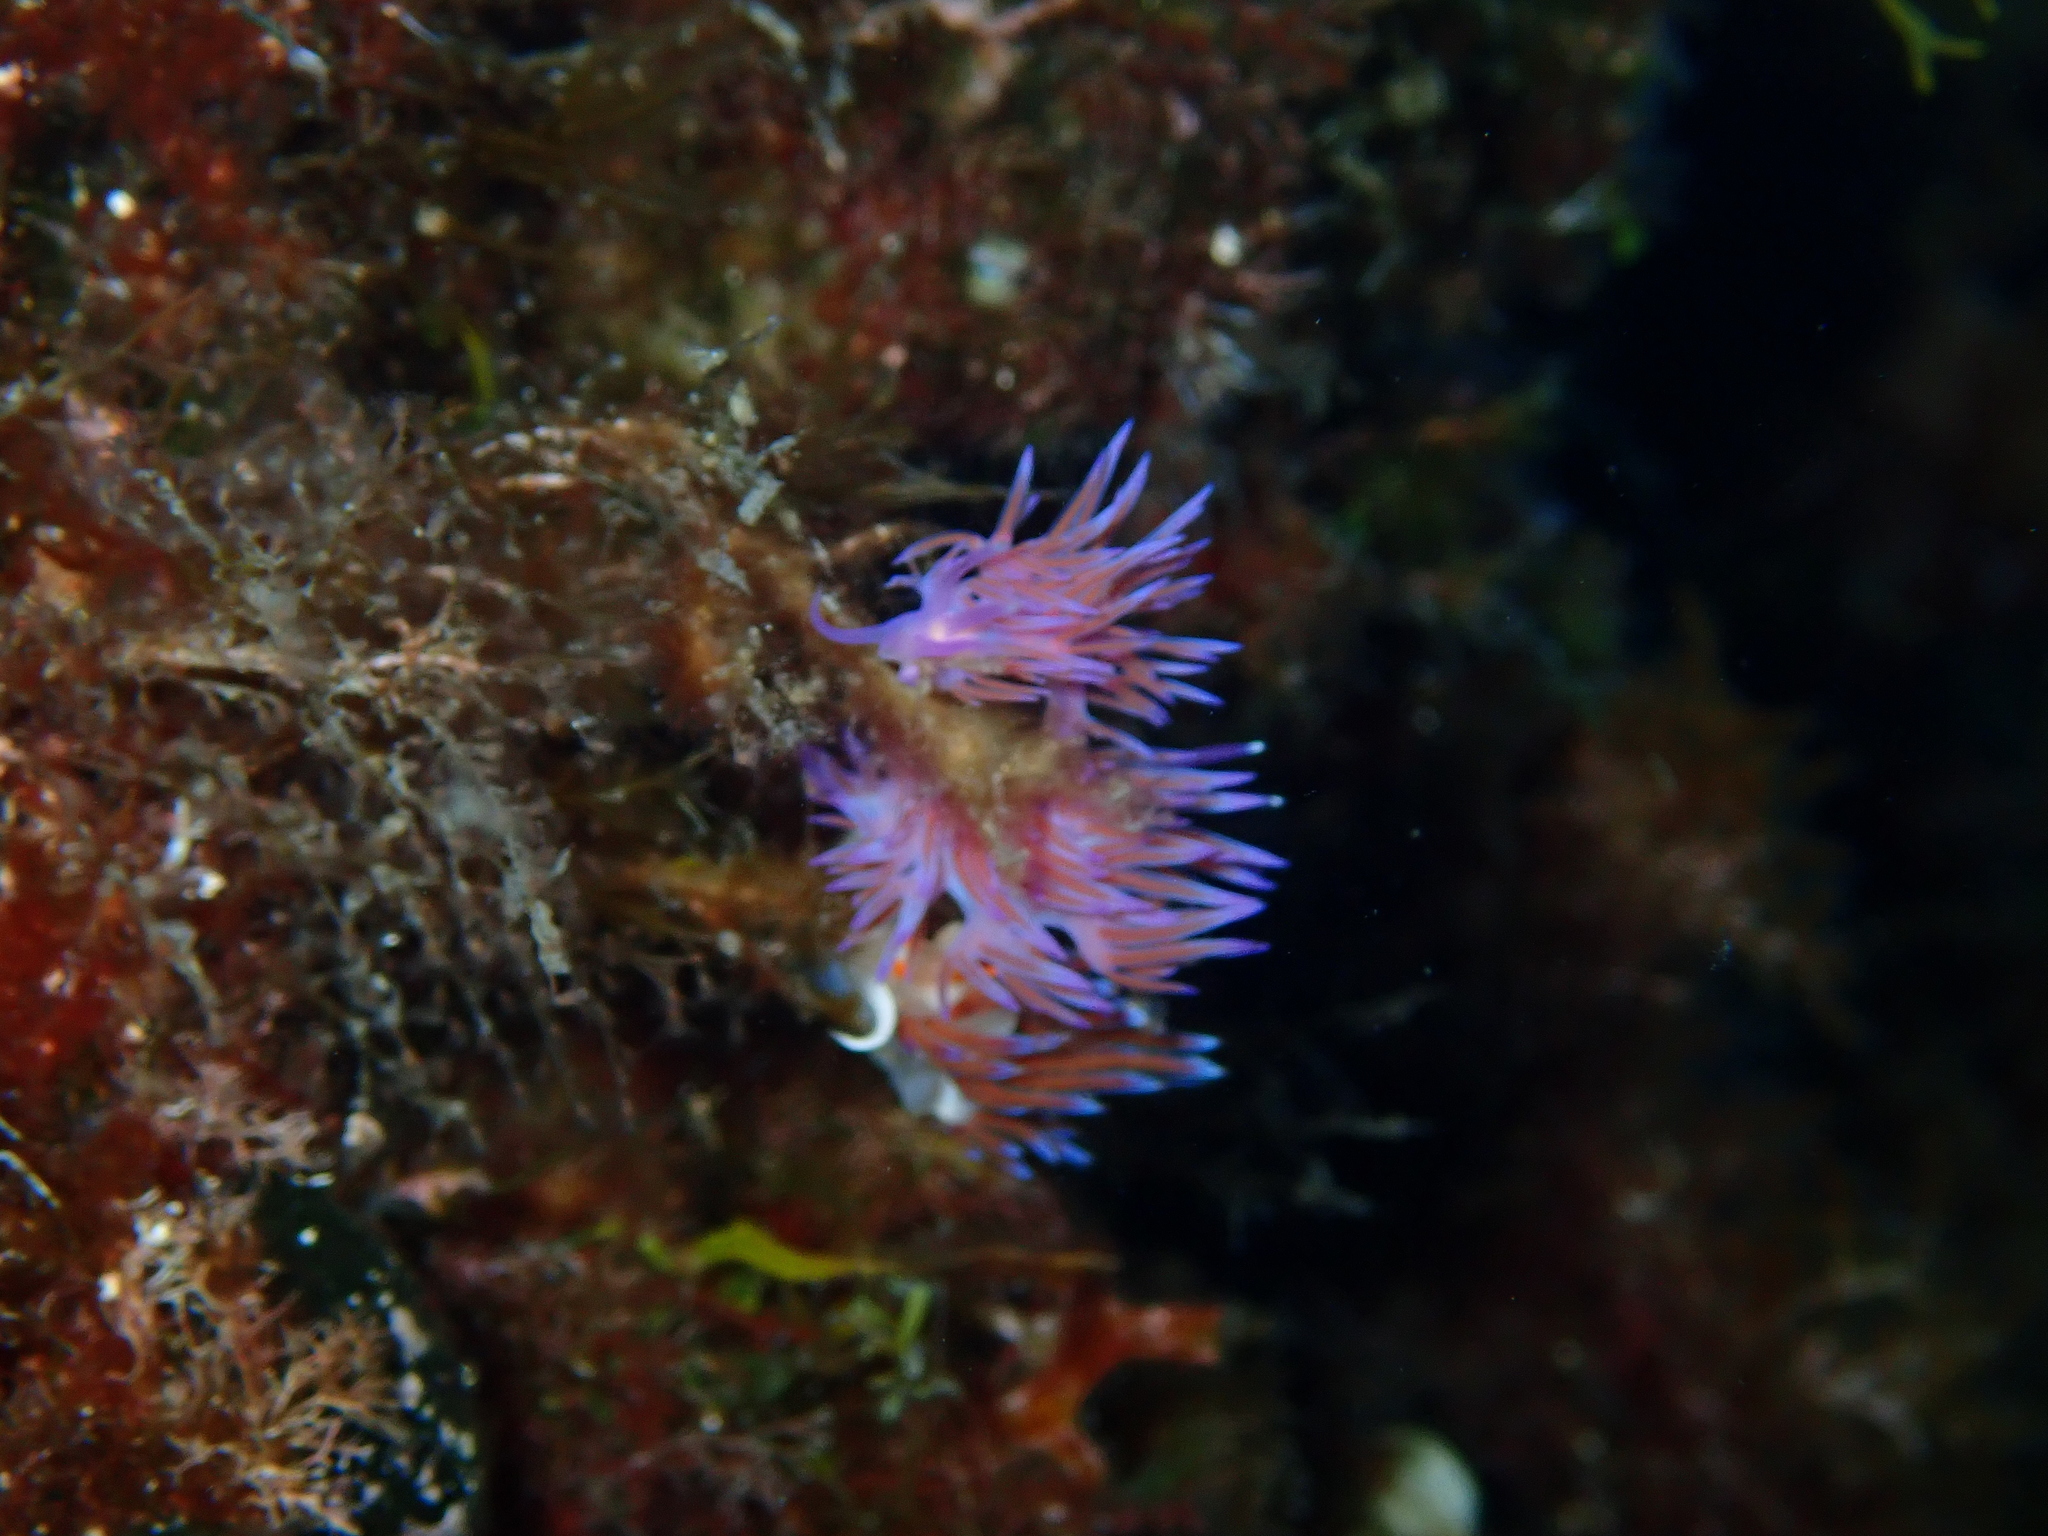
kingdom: Animalia
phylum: Mollusca
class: Gastropoda
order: Nudibranchia
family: Flabellinidae
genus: Flabellina
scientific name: Flabellina affinis
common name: Mediterranean violet aeolid
